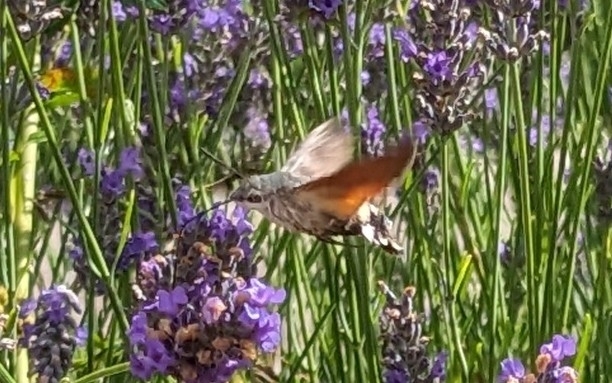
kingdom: Animalia
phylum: Arthropoda
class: Insecta
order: Lepidoptera
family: Sphingidae
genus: Macroglossum
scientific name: Macroglossum stellatarum
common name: Humming-bird hawk-moth
